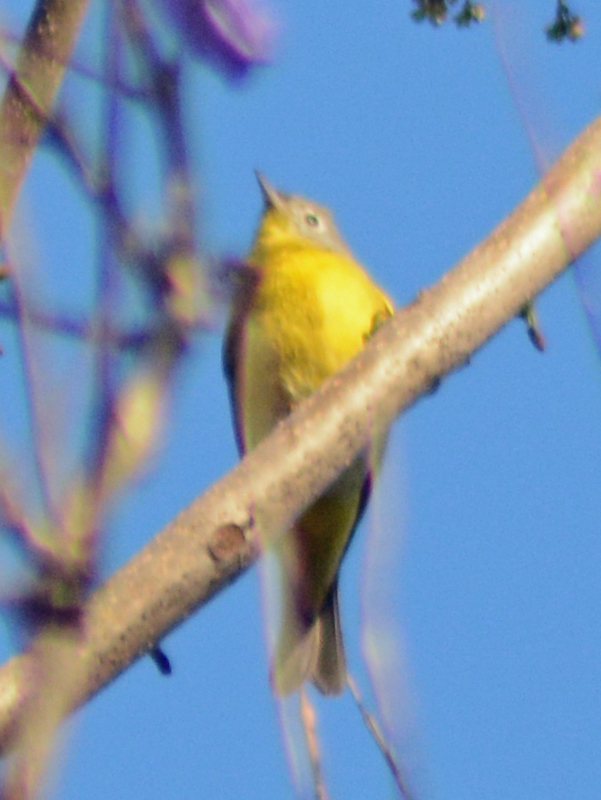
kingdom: Animalia
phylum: Chordata
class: Aves
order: Passeriformes
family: Parulidae
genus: Leiothlypis
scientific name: Leiothlypis ruficapilla
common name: Nashville warbler
